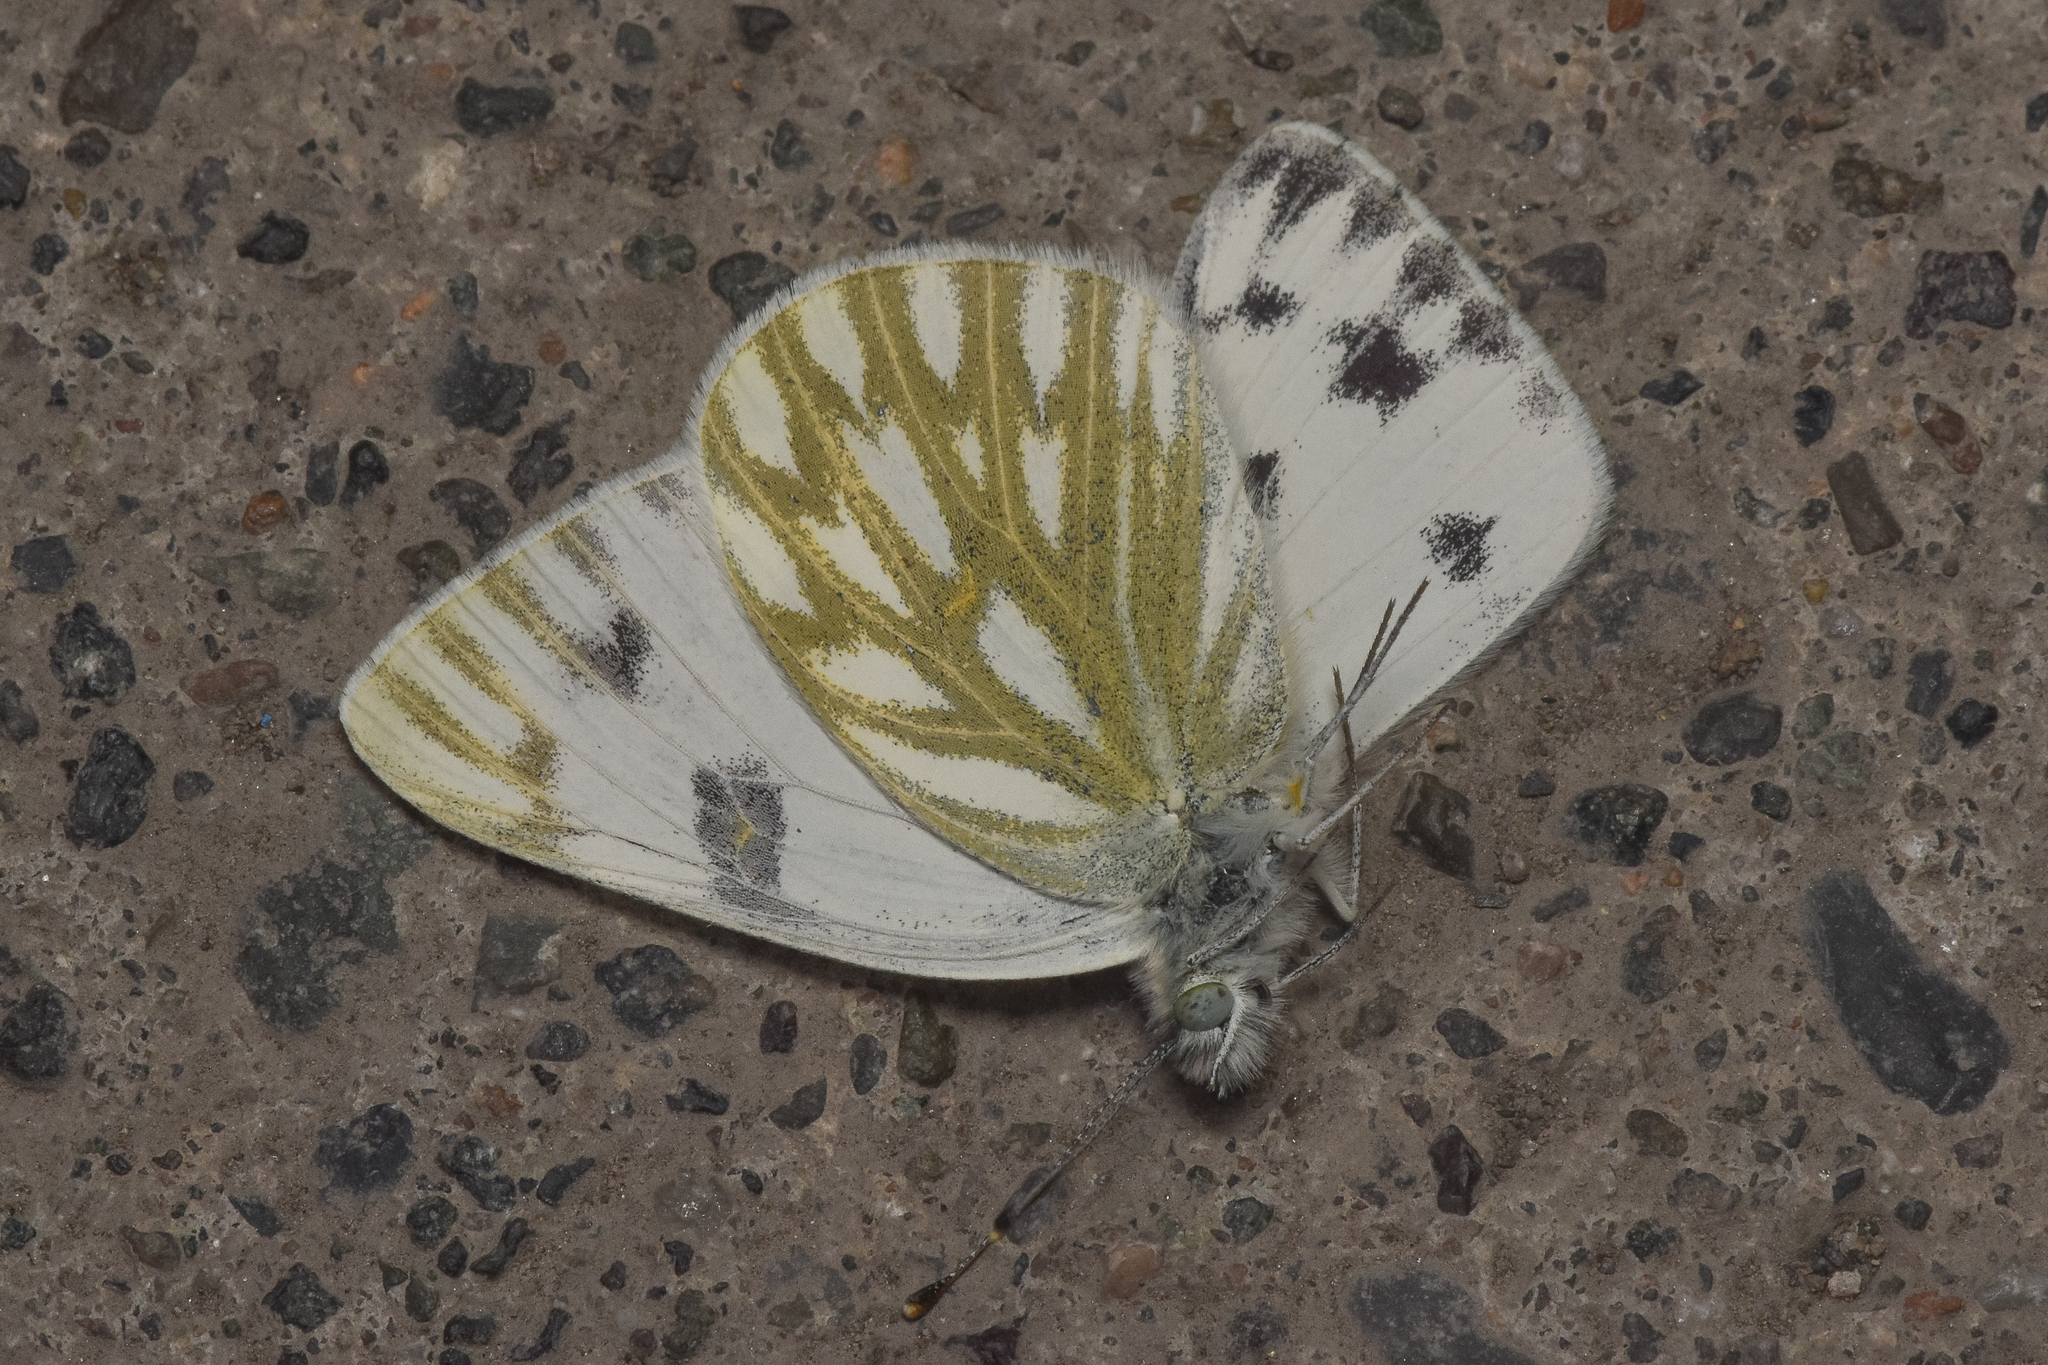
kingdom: Animalia
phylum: Arthropoda
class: Insecta
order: Lepidoptera
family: Pieridae
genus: Pontia
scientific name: Pontia occidentalis
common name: Western white
